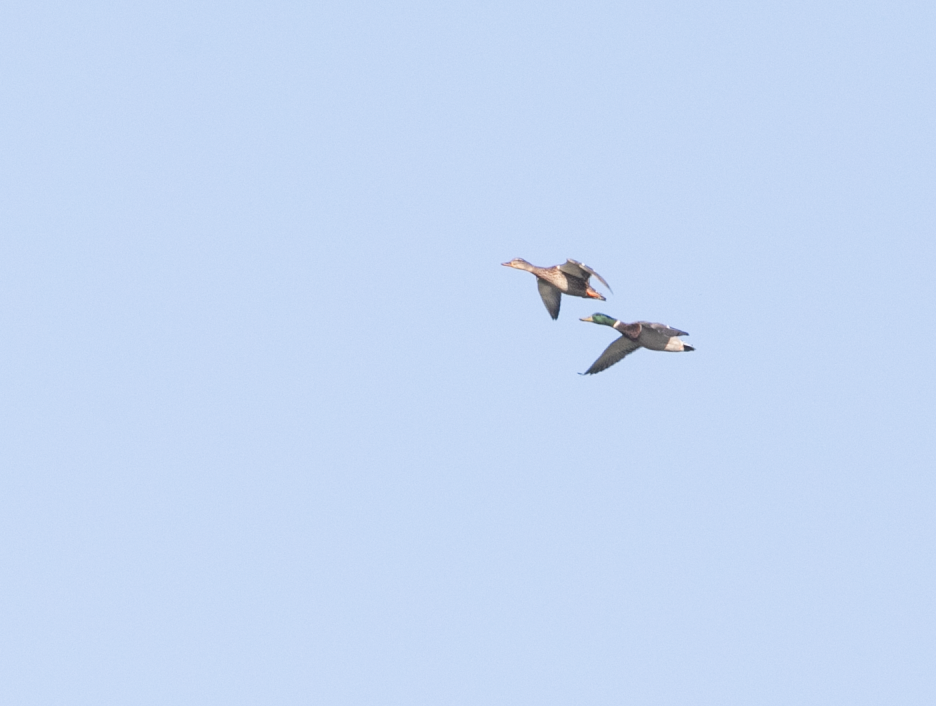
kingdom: Animalia
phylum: Chordata
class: Aves
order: Anseriformes
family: Anatidae
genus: Anas
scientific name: Anas platyrhynchos
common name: Mallard
